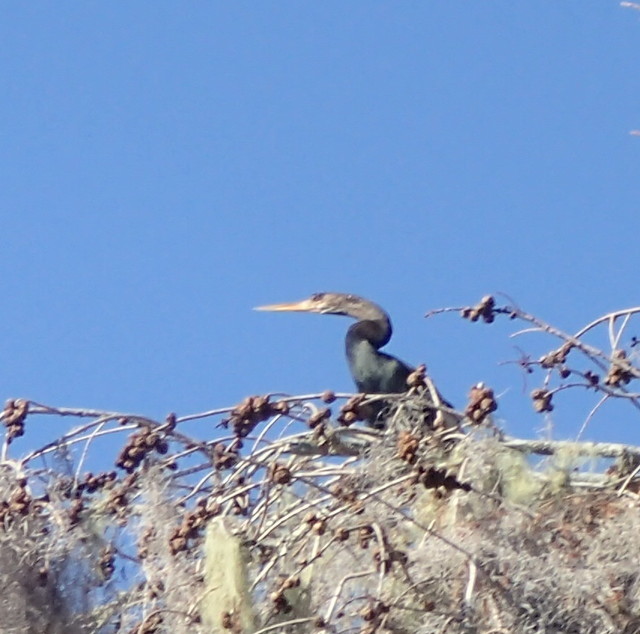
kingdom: Animalia
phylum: Chordata
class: Aves
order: Suliformes
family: Anhingidae
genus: Anhinga
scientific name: Anhinga anhinga
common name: Anhinga
